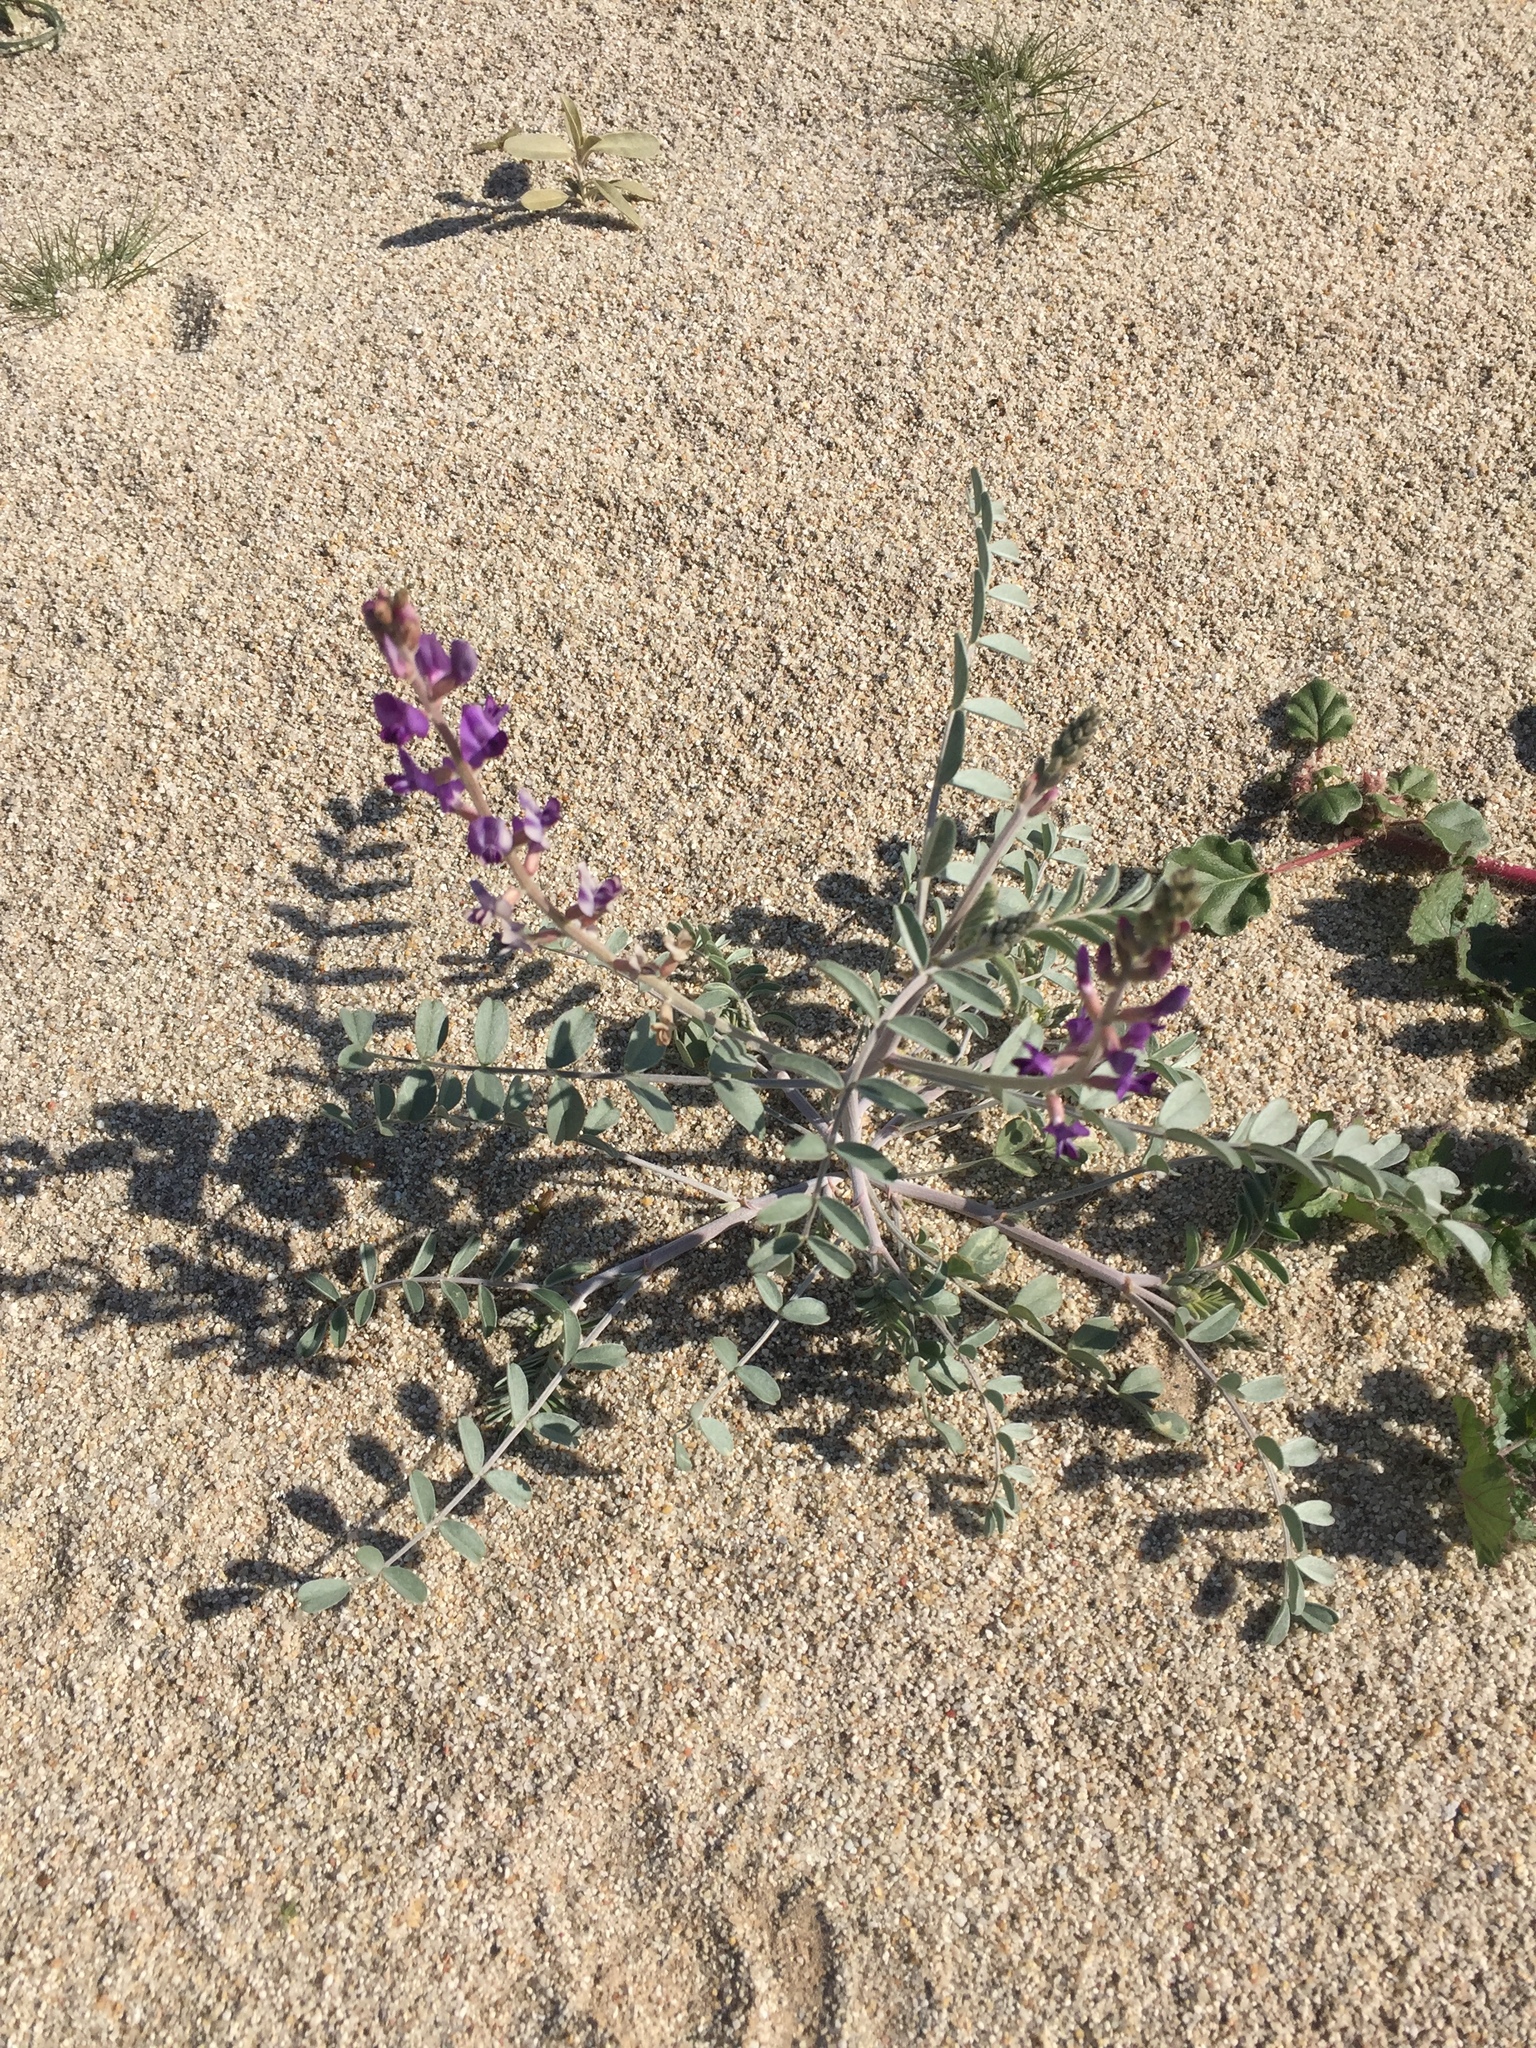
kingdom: Plantae
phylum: Tracheophyta
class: Magnoliopsida
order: Fabales
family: Fabaceae
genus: Astragalus
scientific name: Astragalus lentiginosus
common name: Freckled milkvetch
